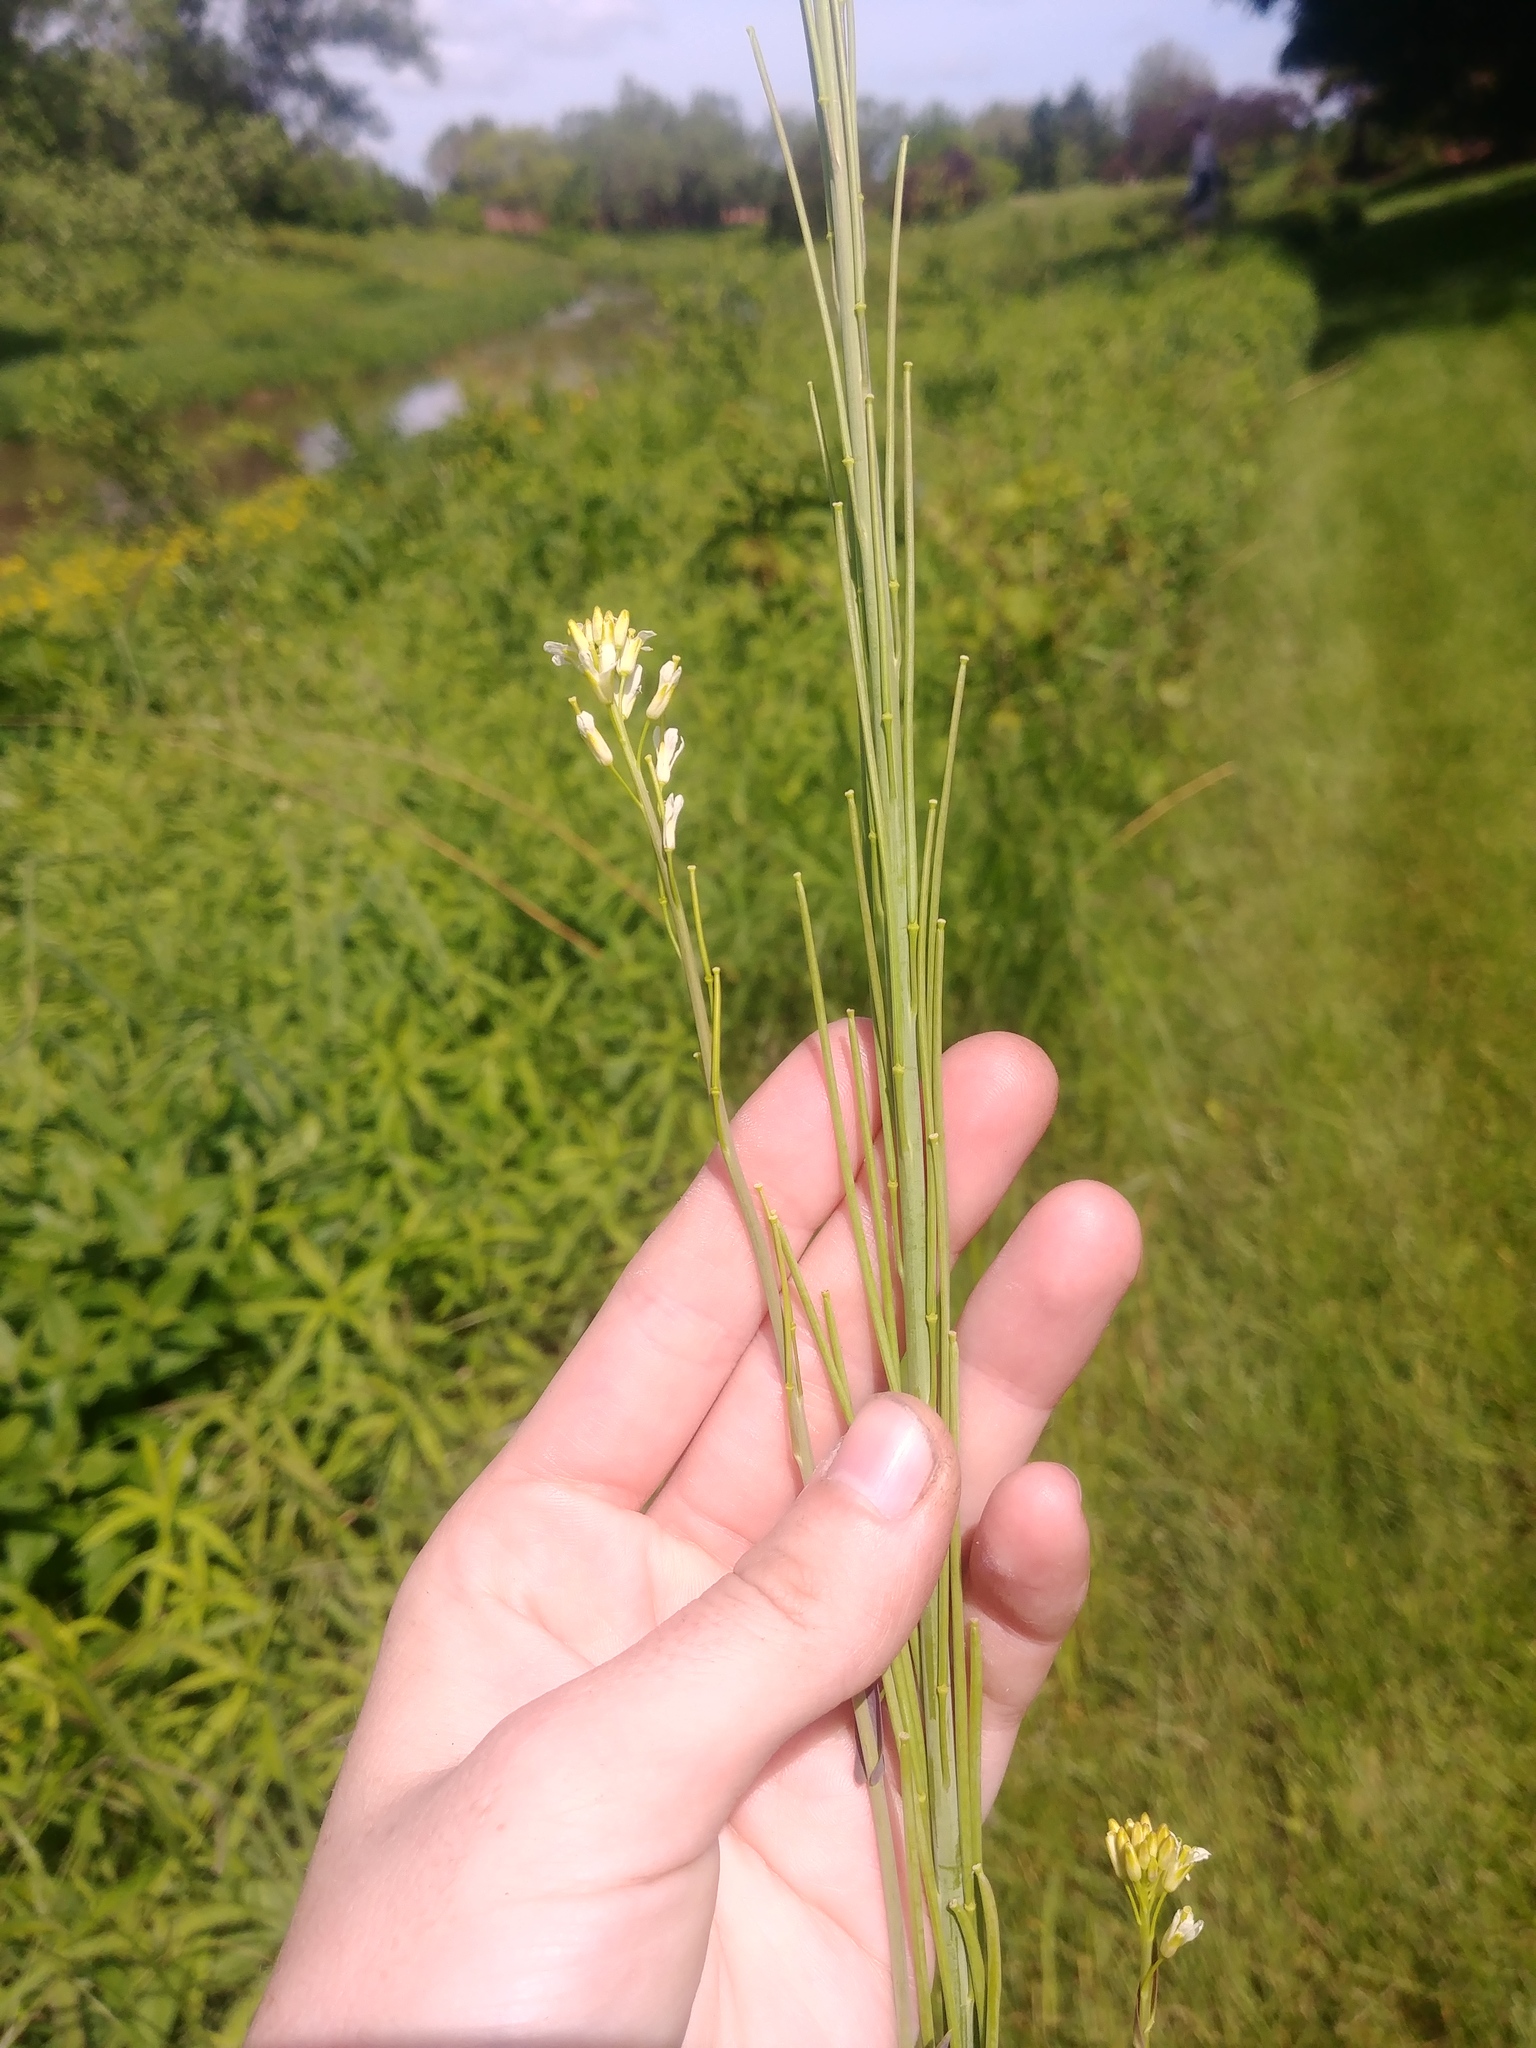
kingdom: Plantae
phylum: Tracheophyta
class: Magnoliopsida
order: Brassicales
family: Brassicaceae
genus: Turritis
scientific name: Turritis glabra
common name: Tower rockcress
